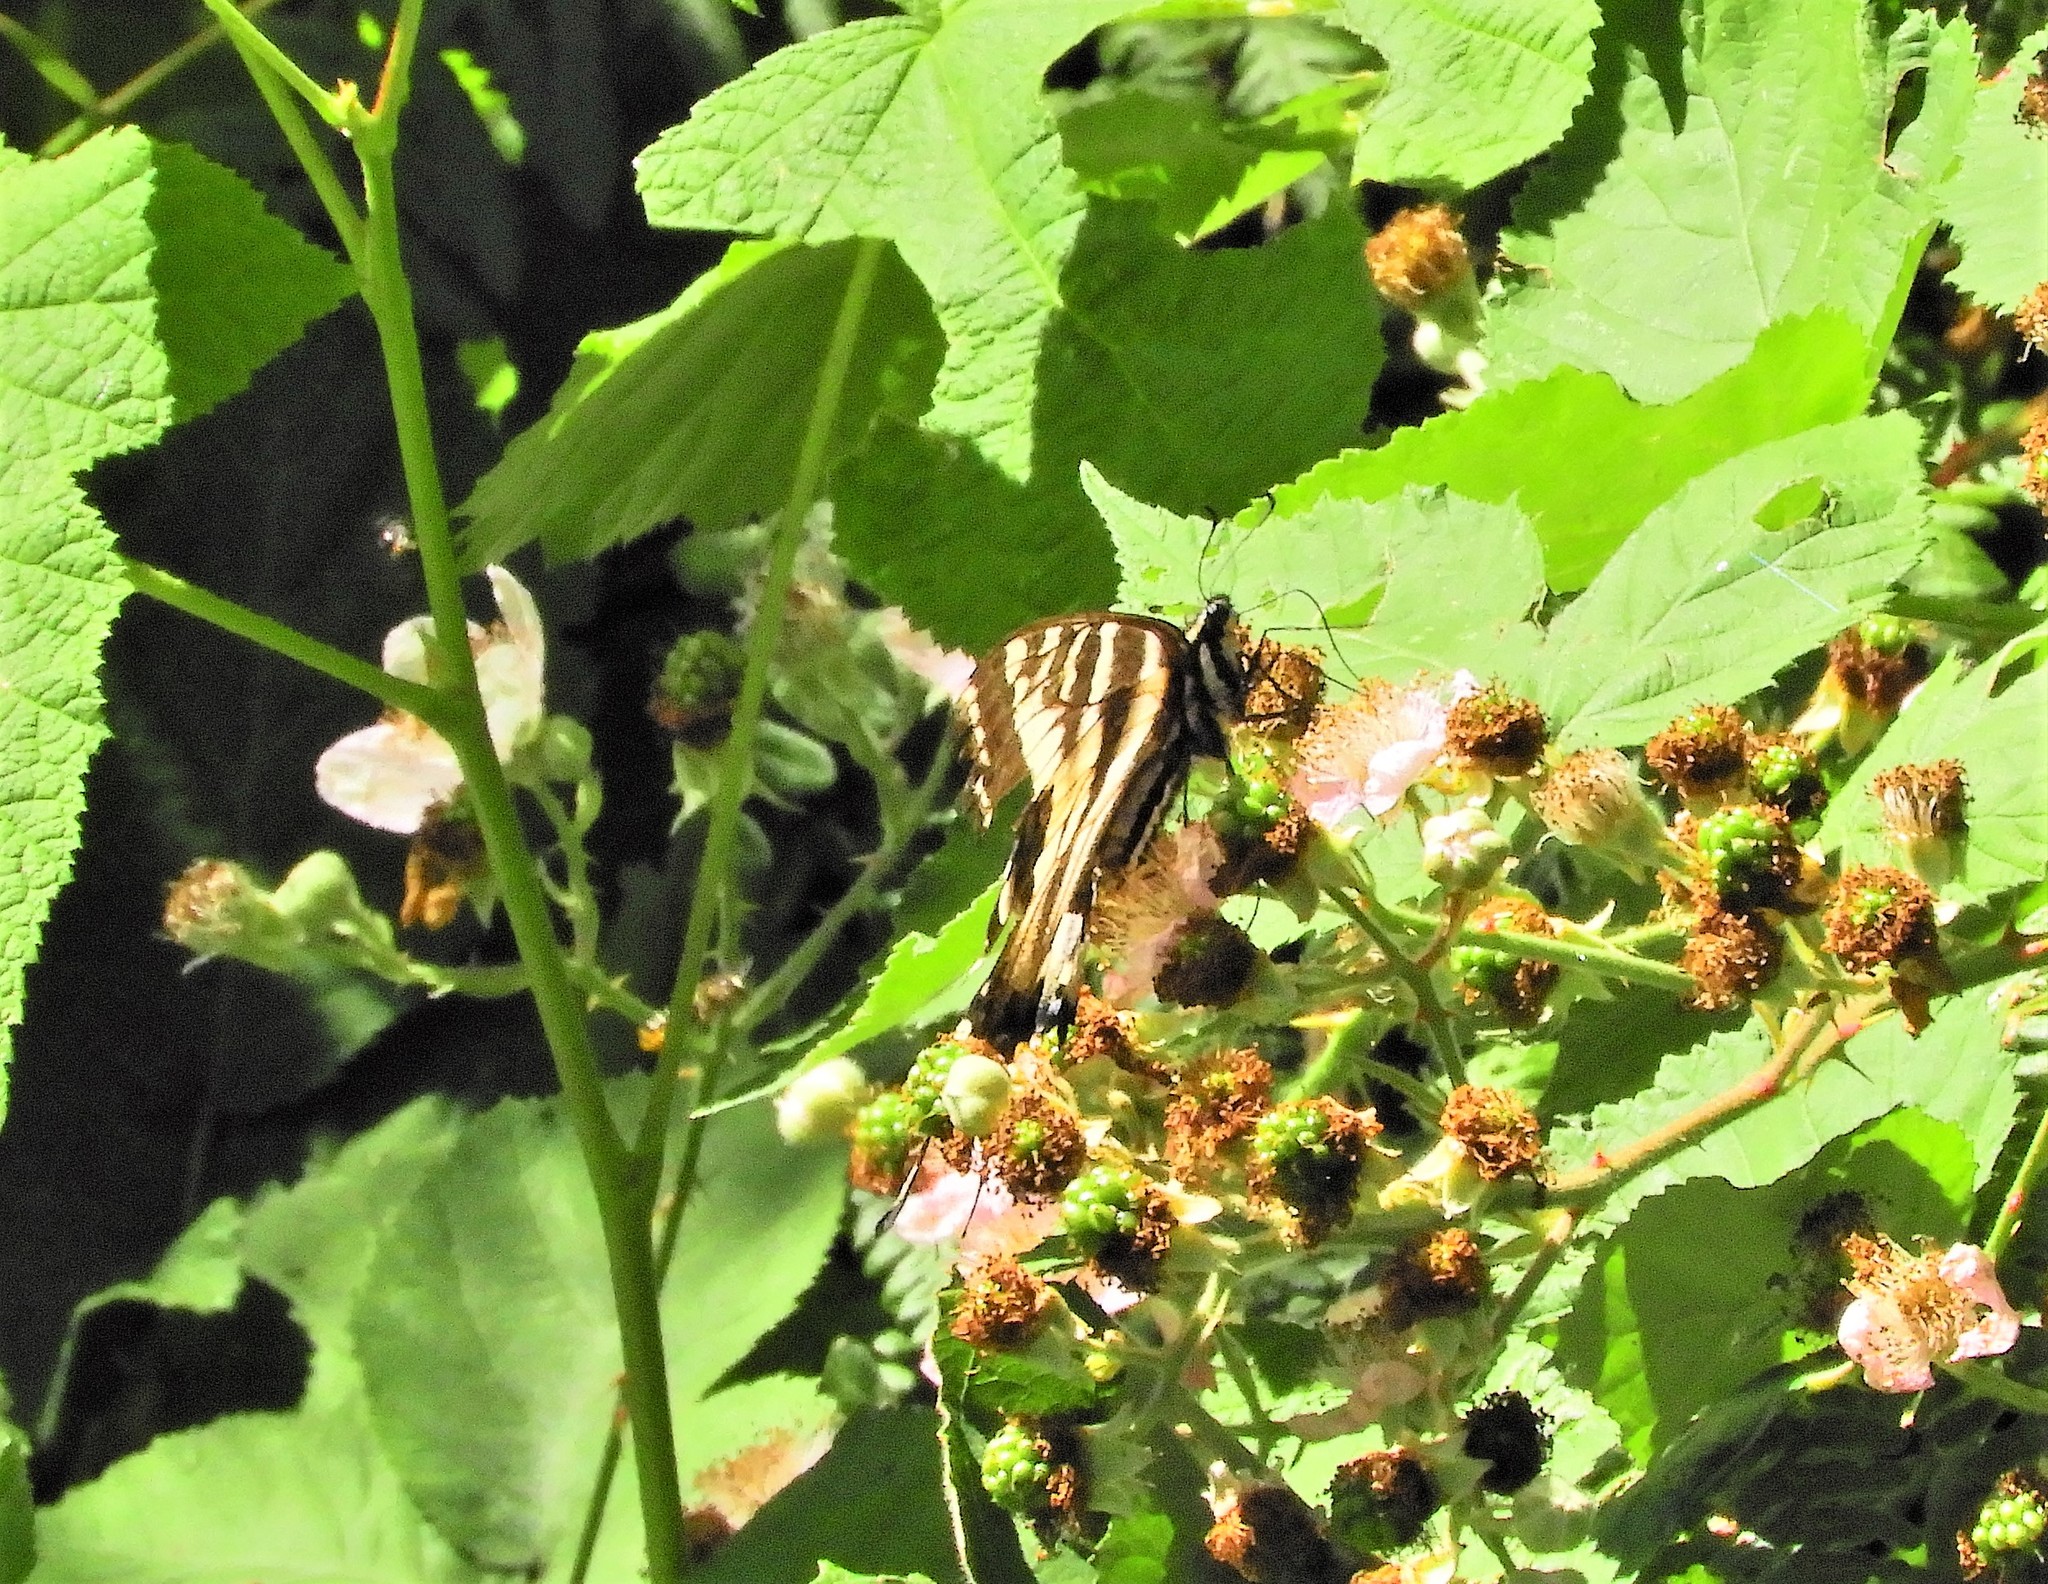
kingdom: Animalia
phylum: Arthropoda
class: Insecta
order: Lepidoptera
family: Papilionidae
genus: Papilio
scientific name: Papilio rutulus
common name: Western tiger swallowtail
